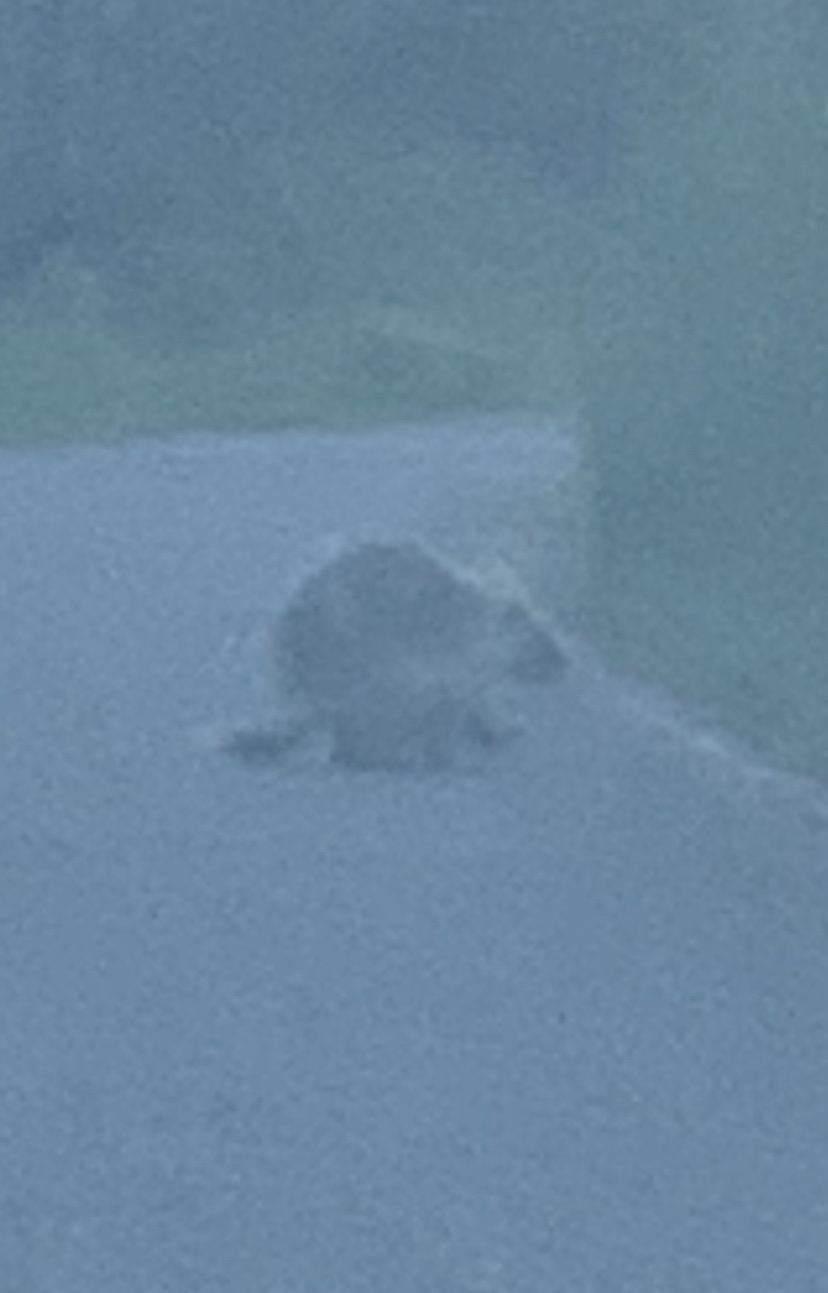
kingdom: Animalia
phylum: Chordata
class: Mammalia
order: Rodentia
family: Erethizontidae
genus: Erethizon
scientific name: Erethizon dorsatus
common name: North american porcupine
